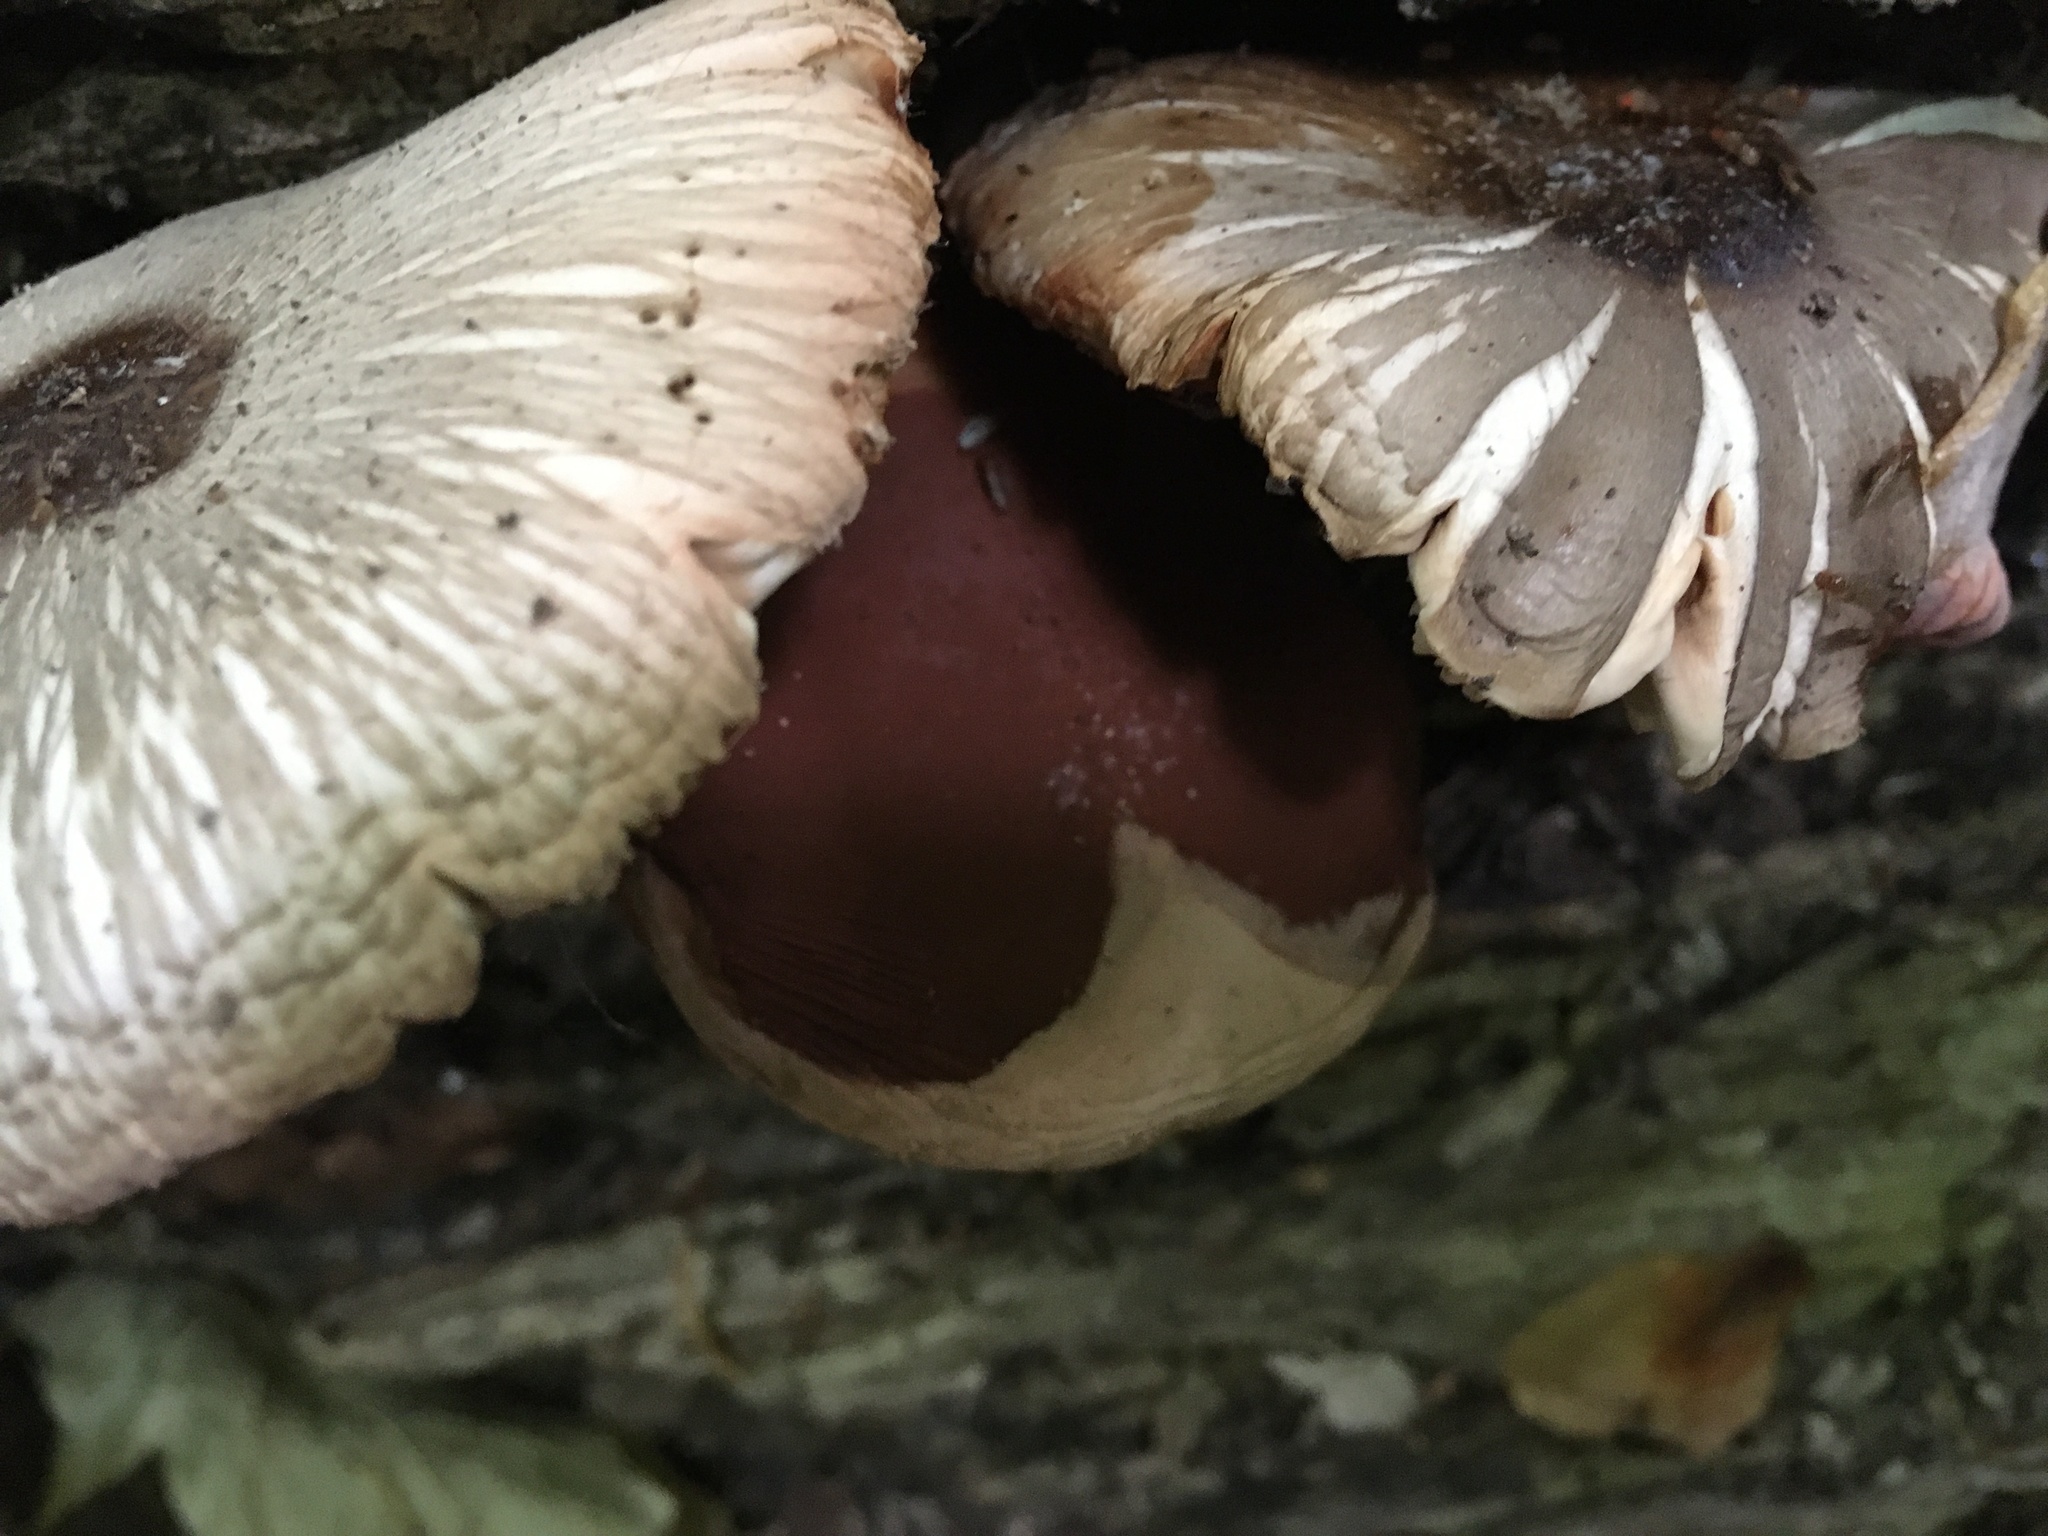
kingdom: Fungi
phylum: Basidiomycota
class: Agaricomycetes
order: Agaricales
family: Pluteaceae
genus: Pluteus
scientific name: Pluteus cervinus
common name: Deer shield
